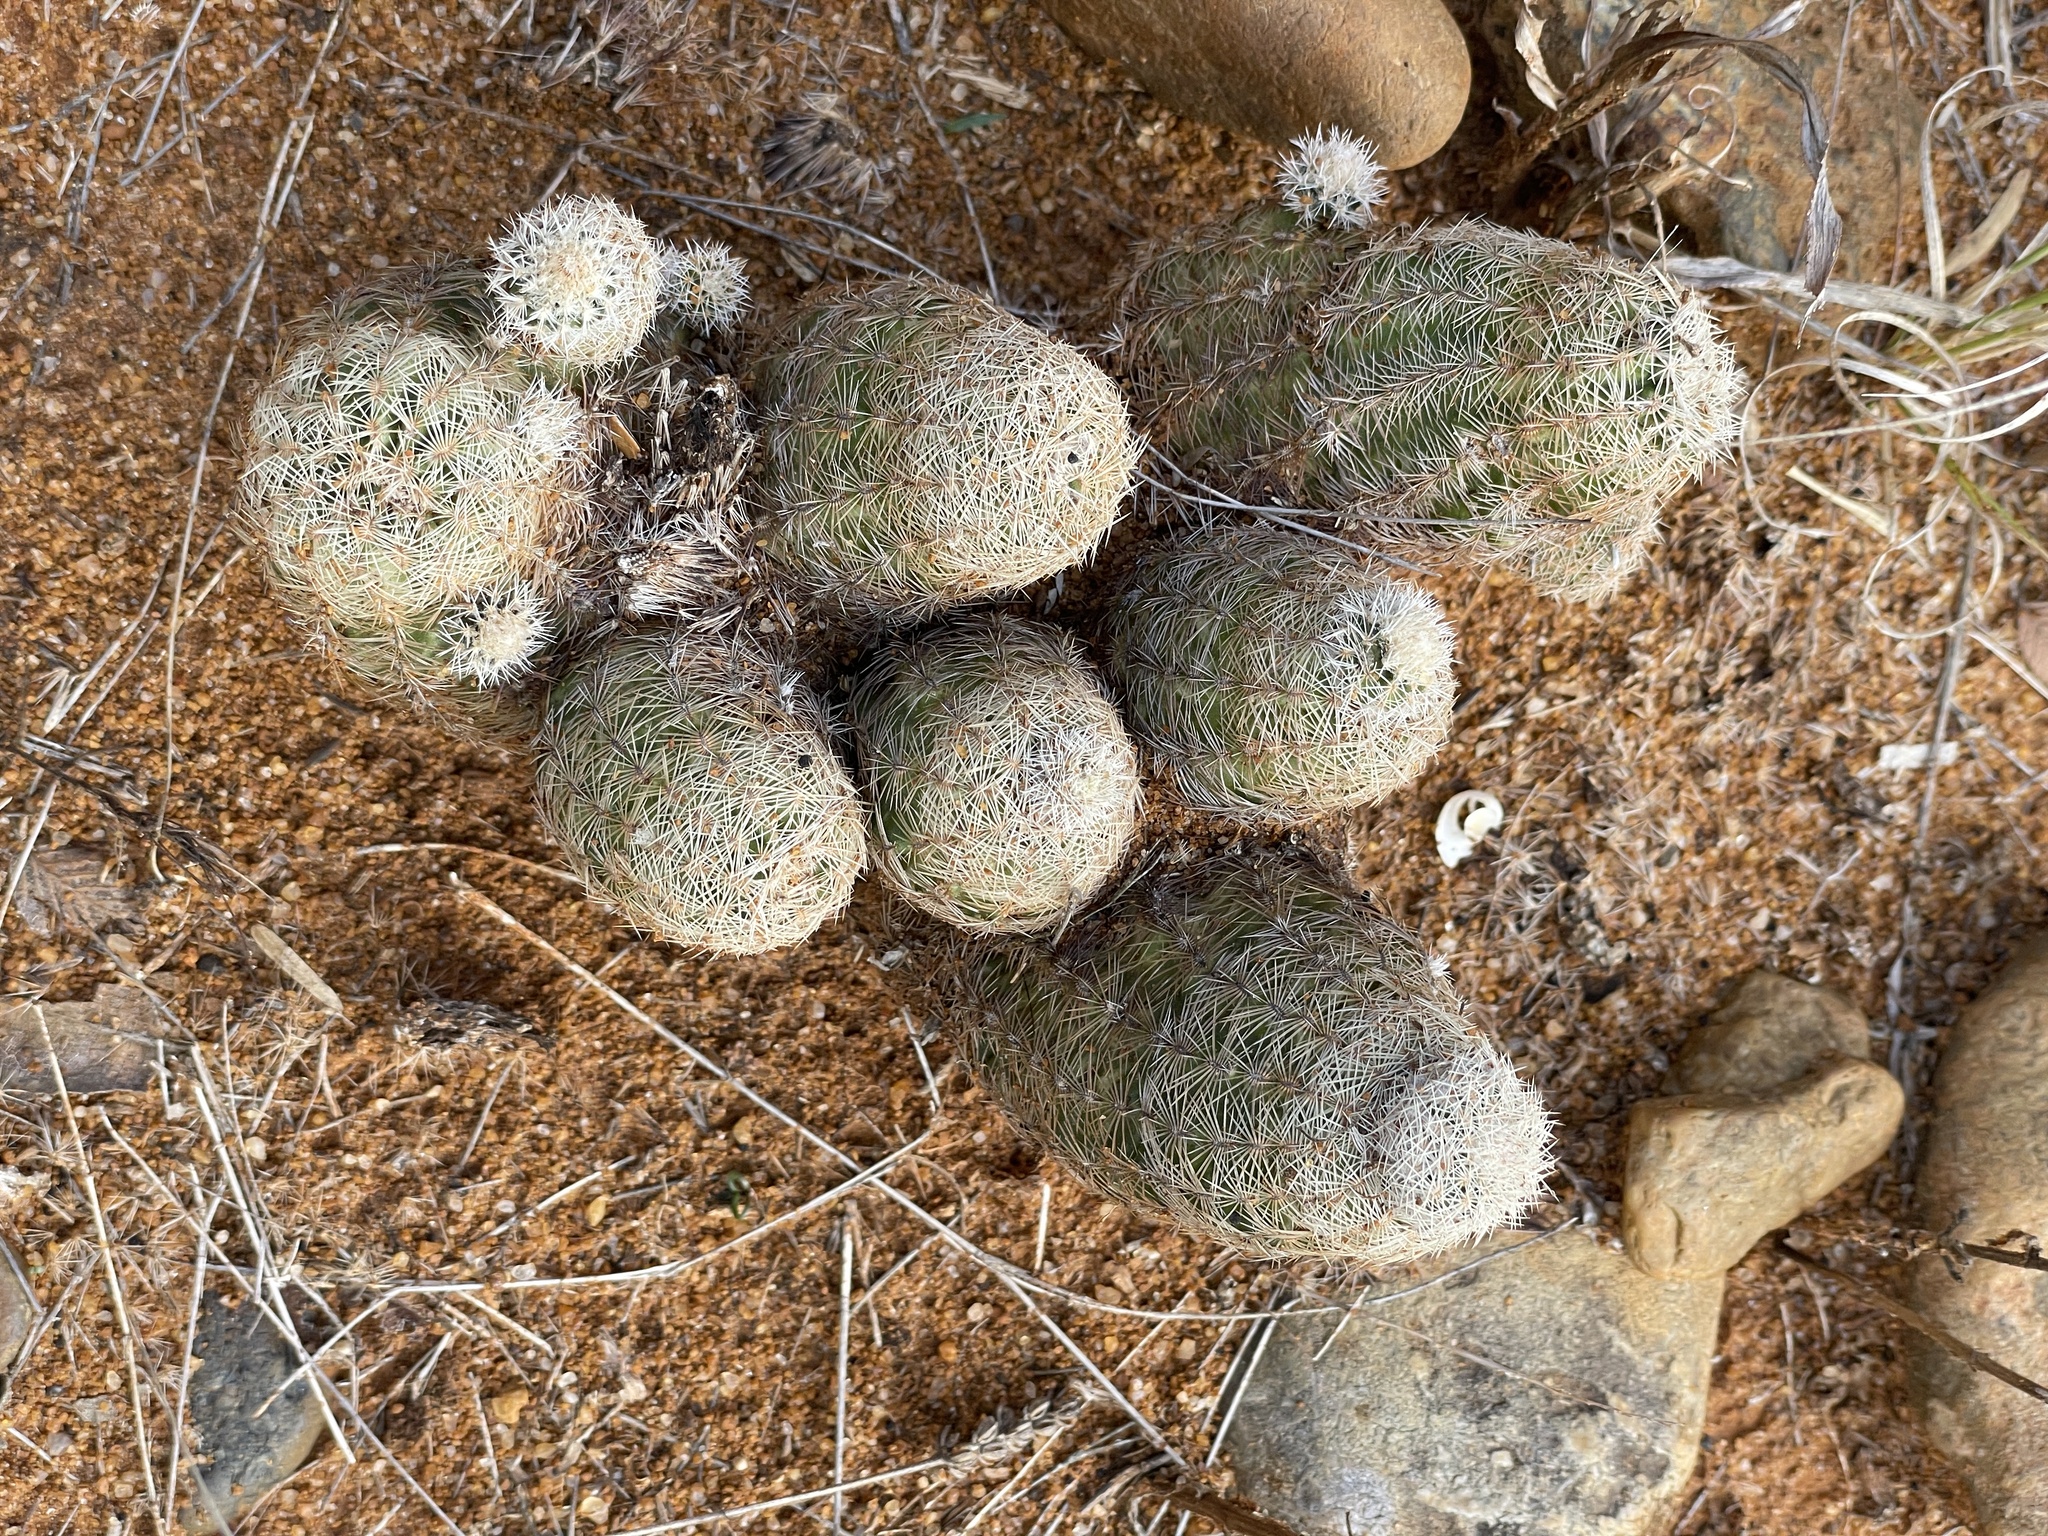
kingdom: Plantae
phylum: Tracheophyta
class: Magnoliopsida
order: Caryophyllales
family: Cactaceae
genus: Echinocereus
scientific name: Echinocereus reichenbachii
